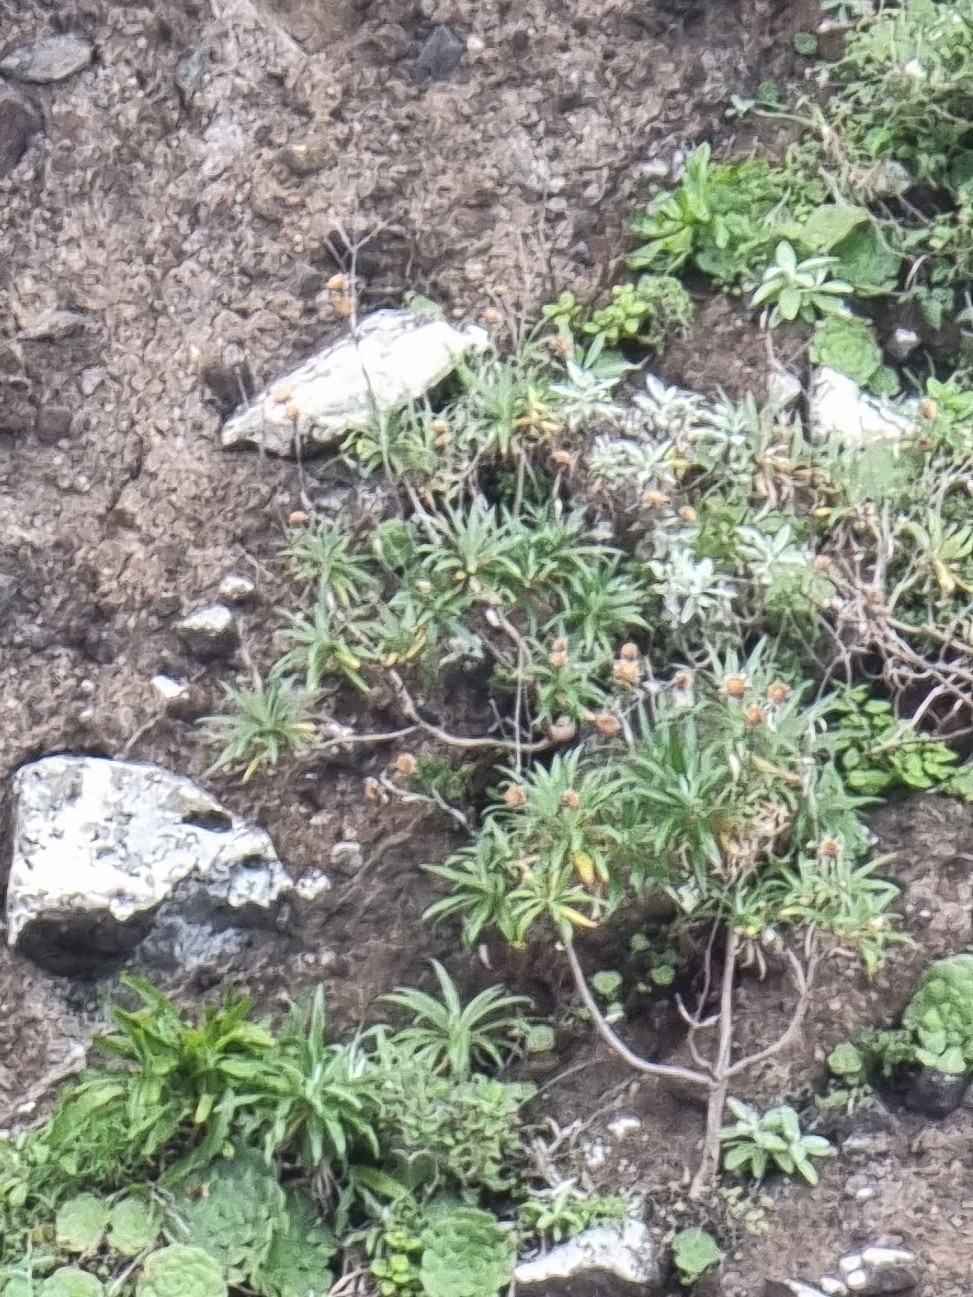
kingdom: Plantae
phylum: Tracheophyta
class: Magnoliopsida
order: Asterales
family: Asteraceae
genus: Carlina
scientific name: Carlina salicifolia
